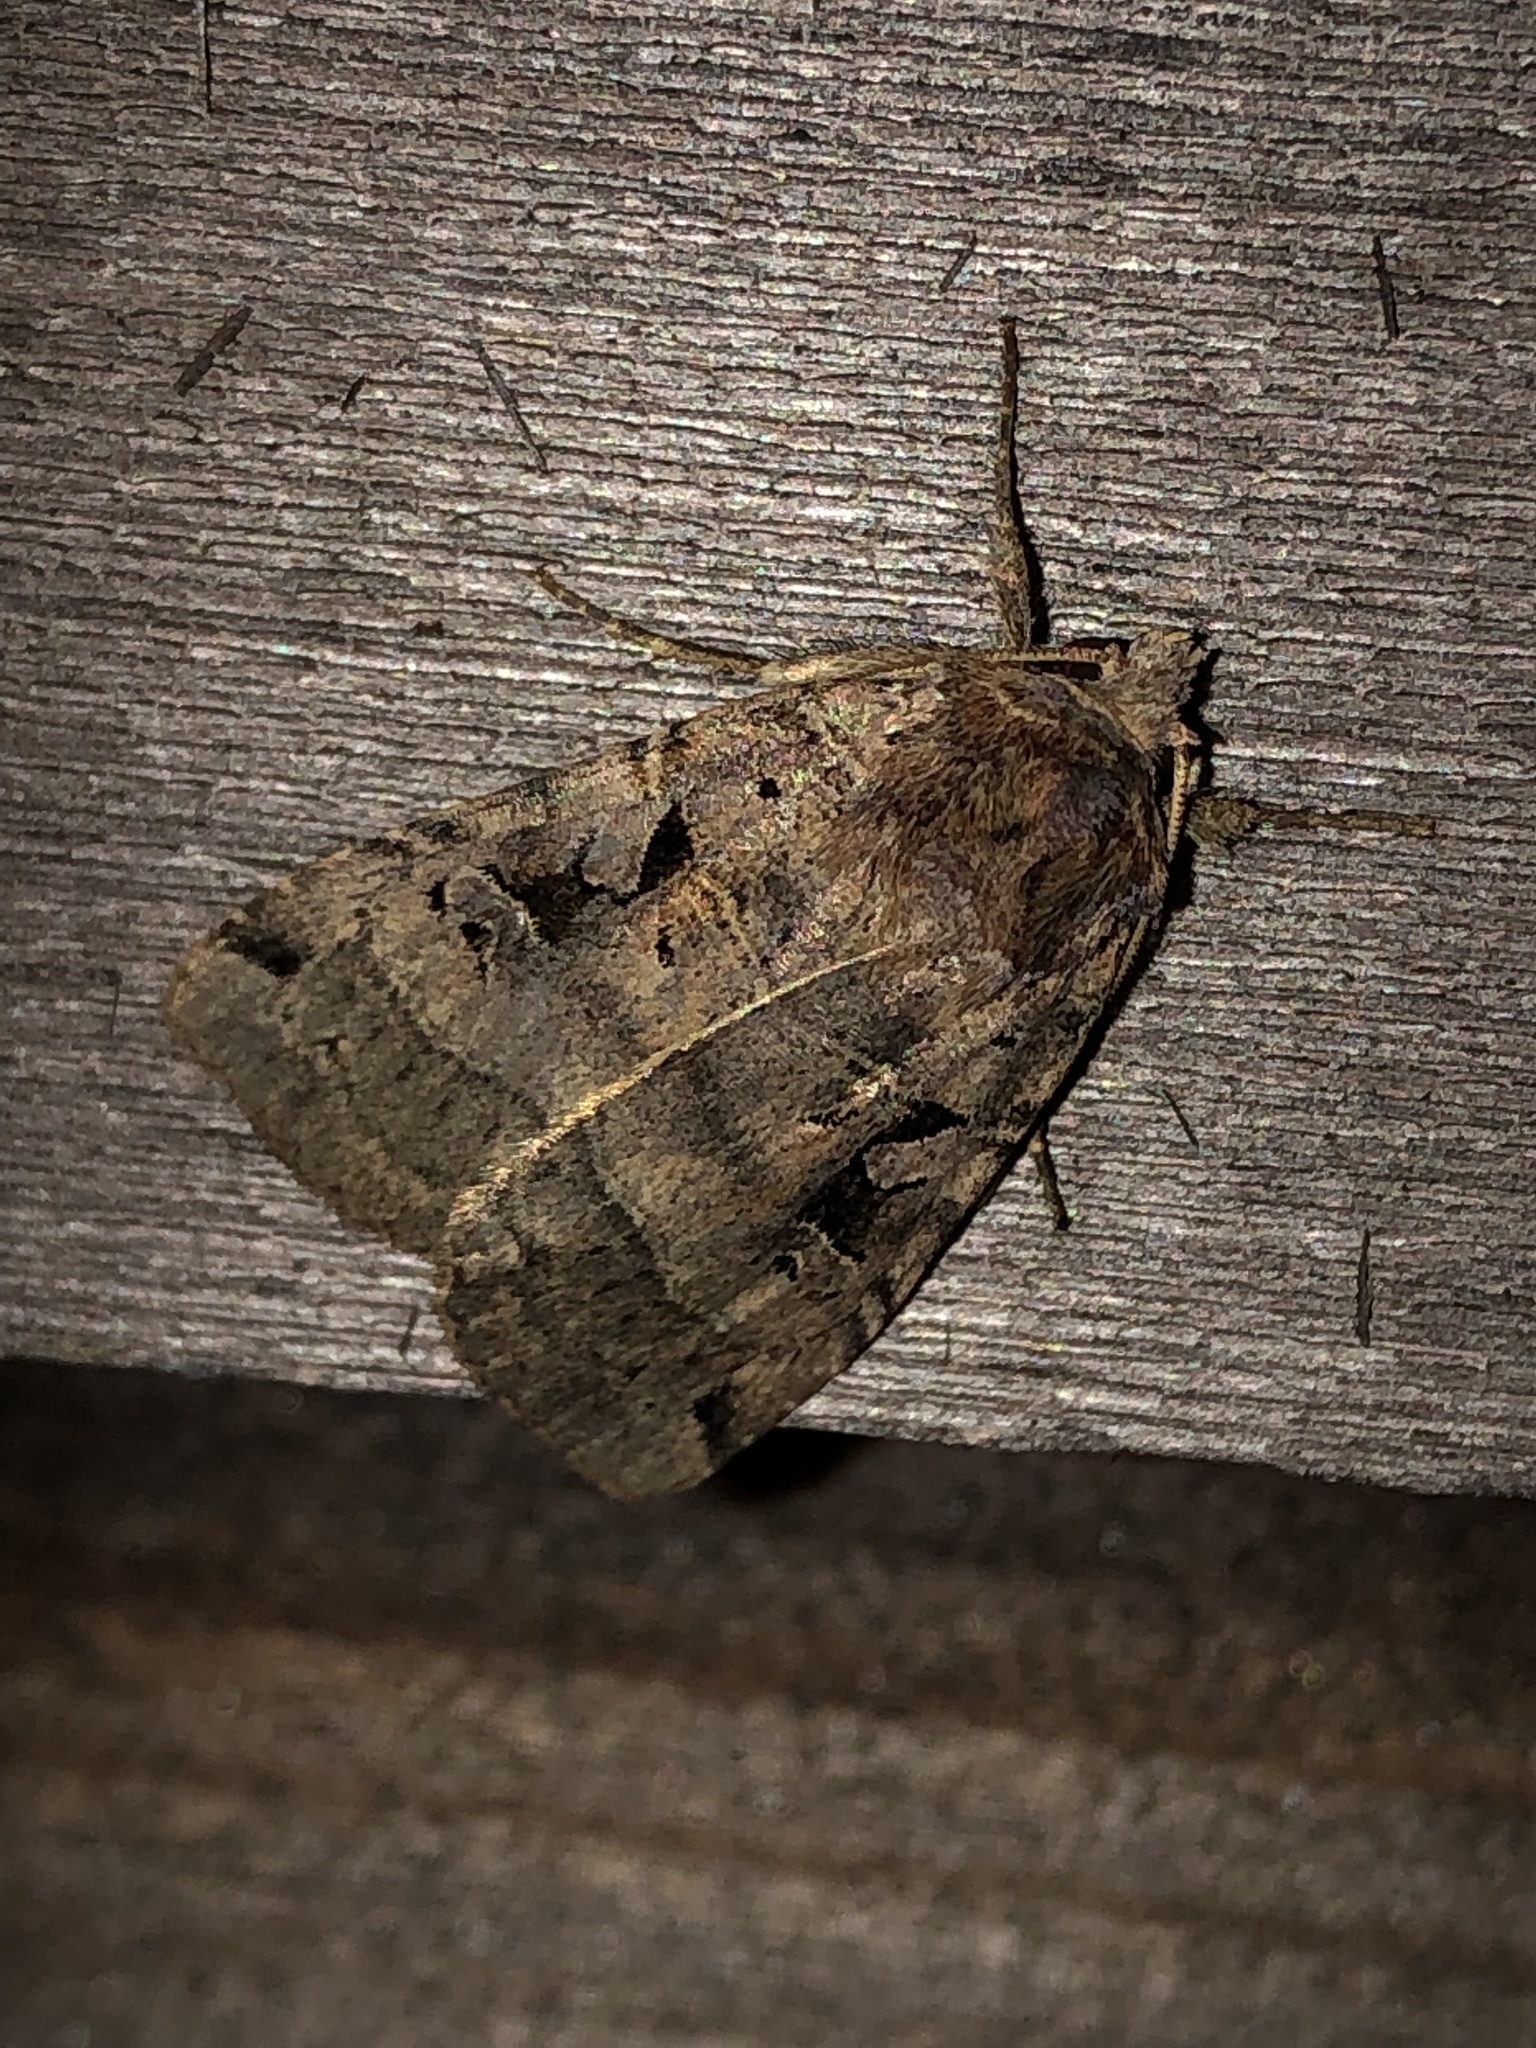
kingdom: Animalia
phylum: Arthropoda
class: Insecta
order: Lepidoptera
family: Noctuidae
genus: Xestia
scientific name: Xestia normaniana
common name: Norman's dart moth
